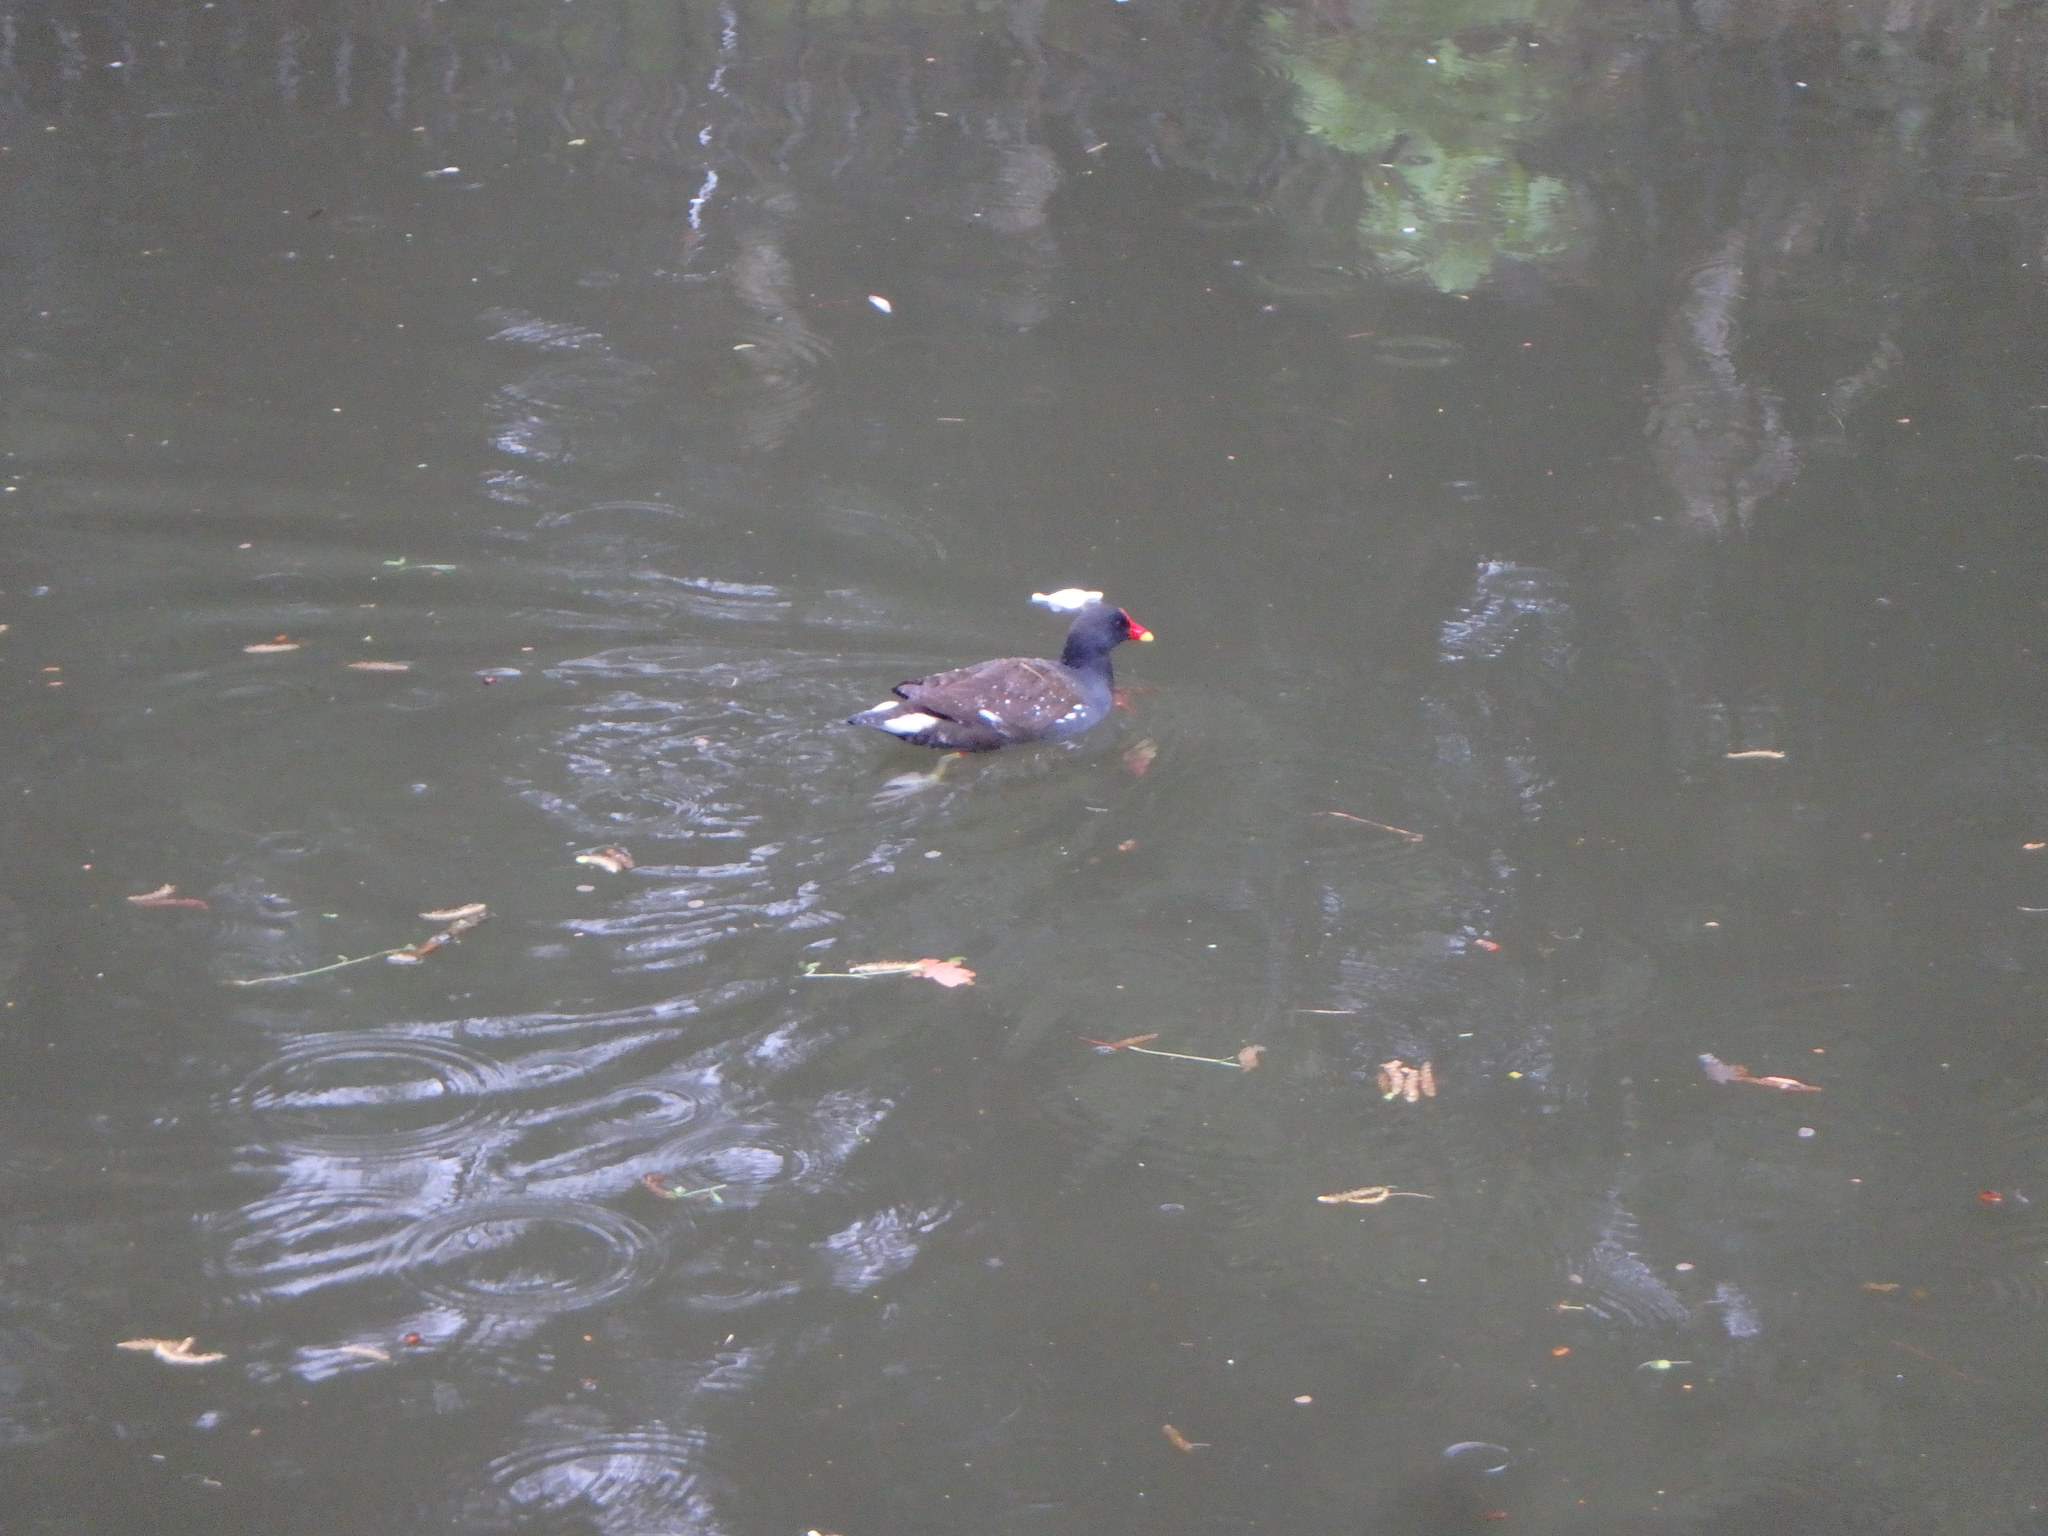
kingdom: Animalia
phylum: Chordata
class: Aves
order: Gruiformes
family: Rallidae
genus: Gallinula
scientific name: Gallinula chloropus
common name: Common moorhen
